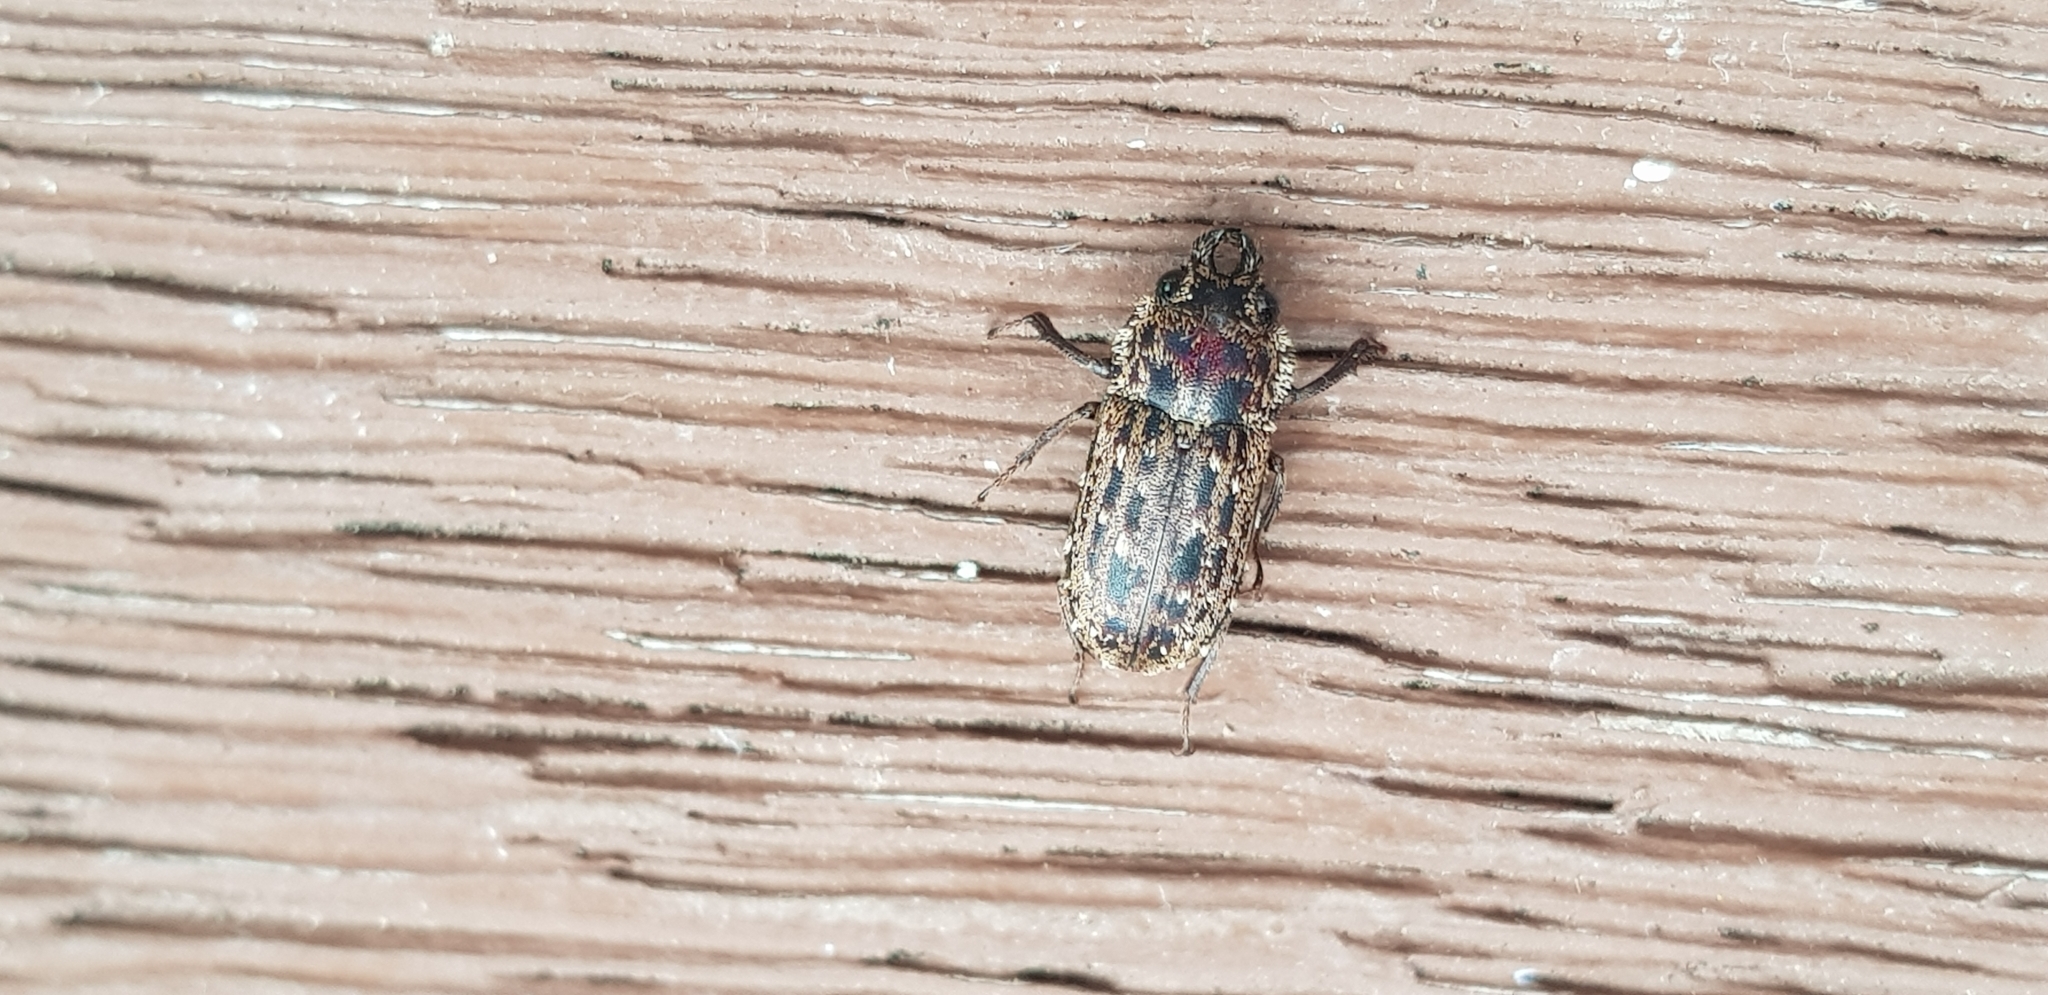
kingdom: Animalia
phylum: Arthropoda
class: Insecta
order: Coleoptera
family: Lucanidae
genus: Mitophyllus
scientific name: Mitophyllus arcuatus
